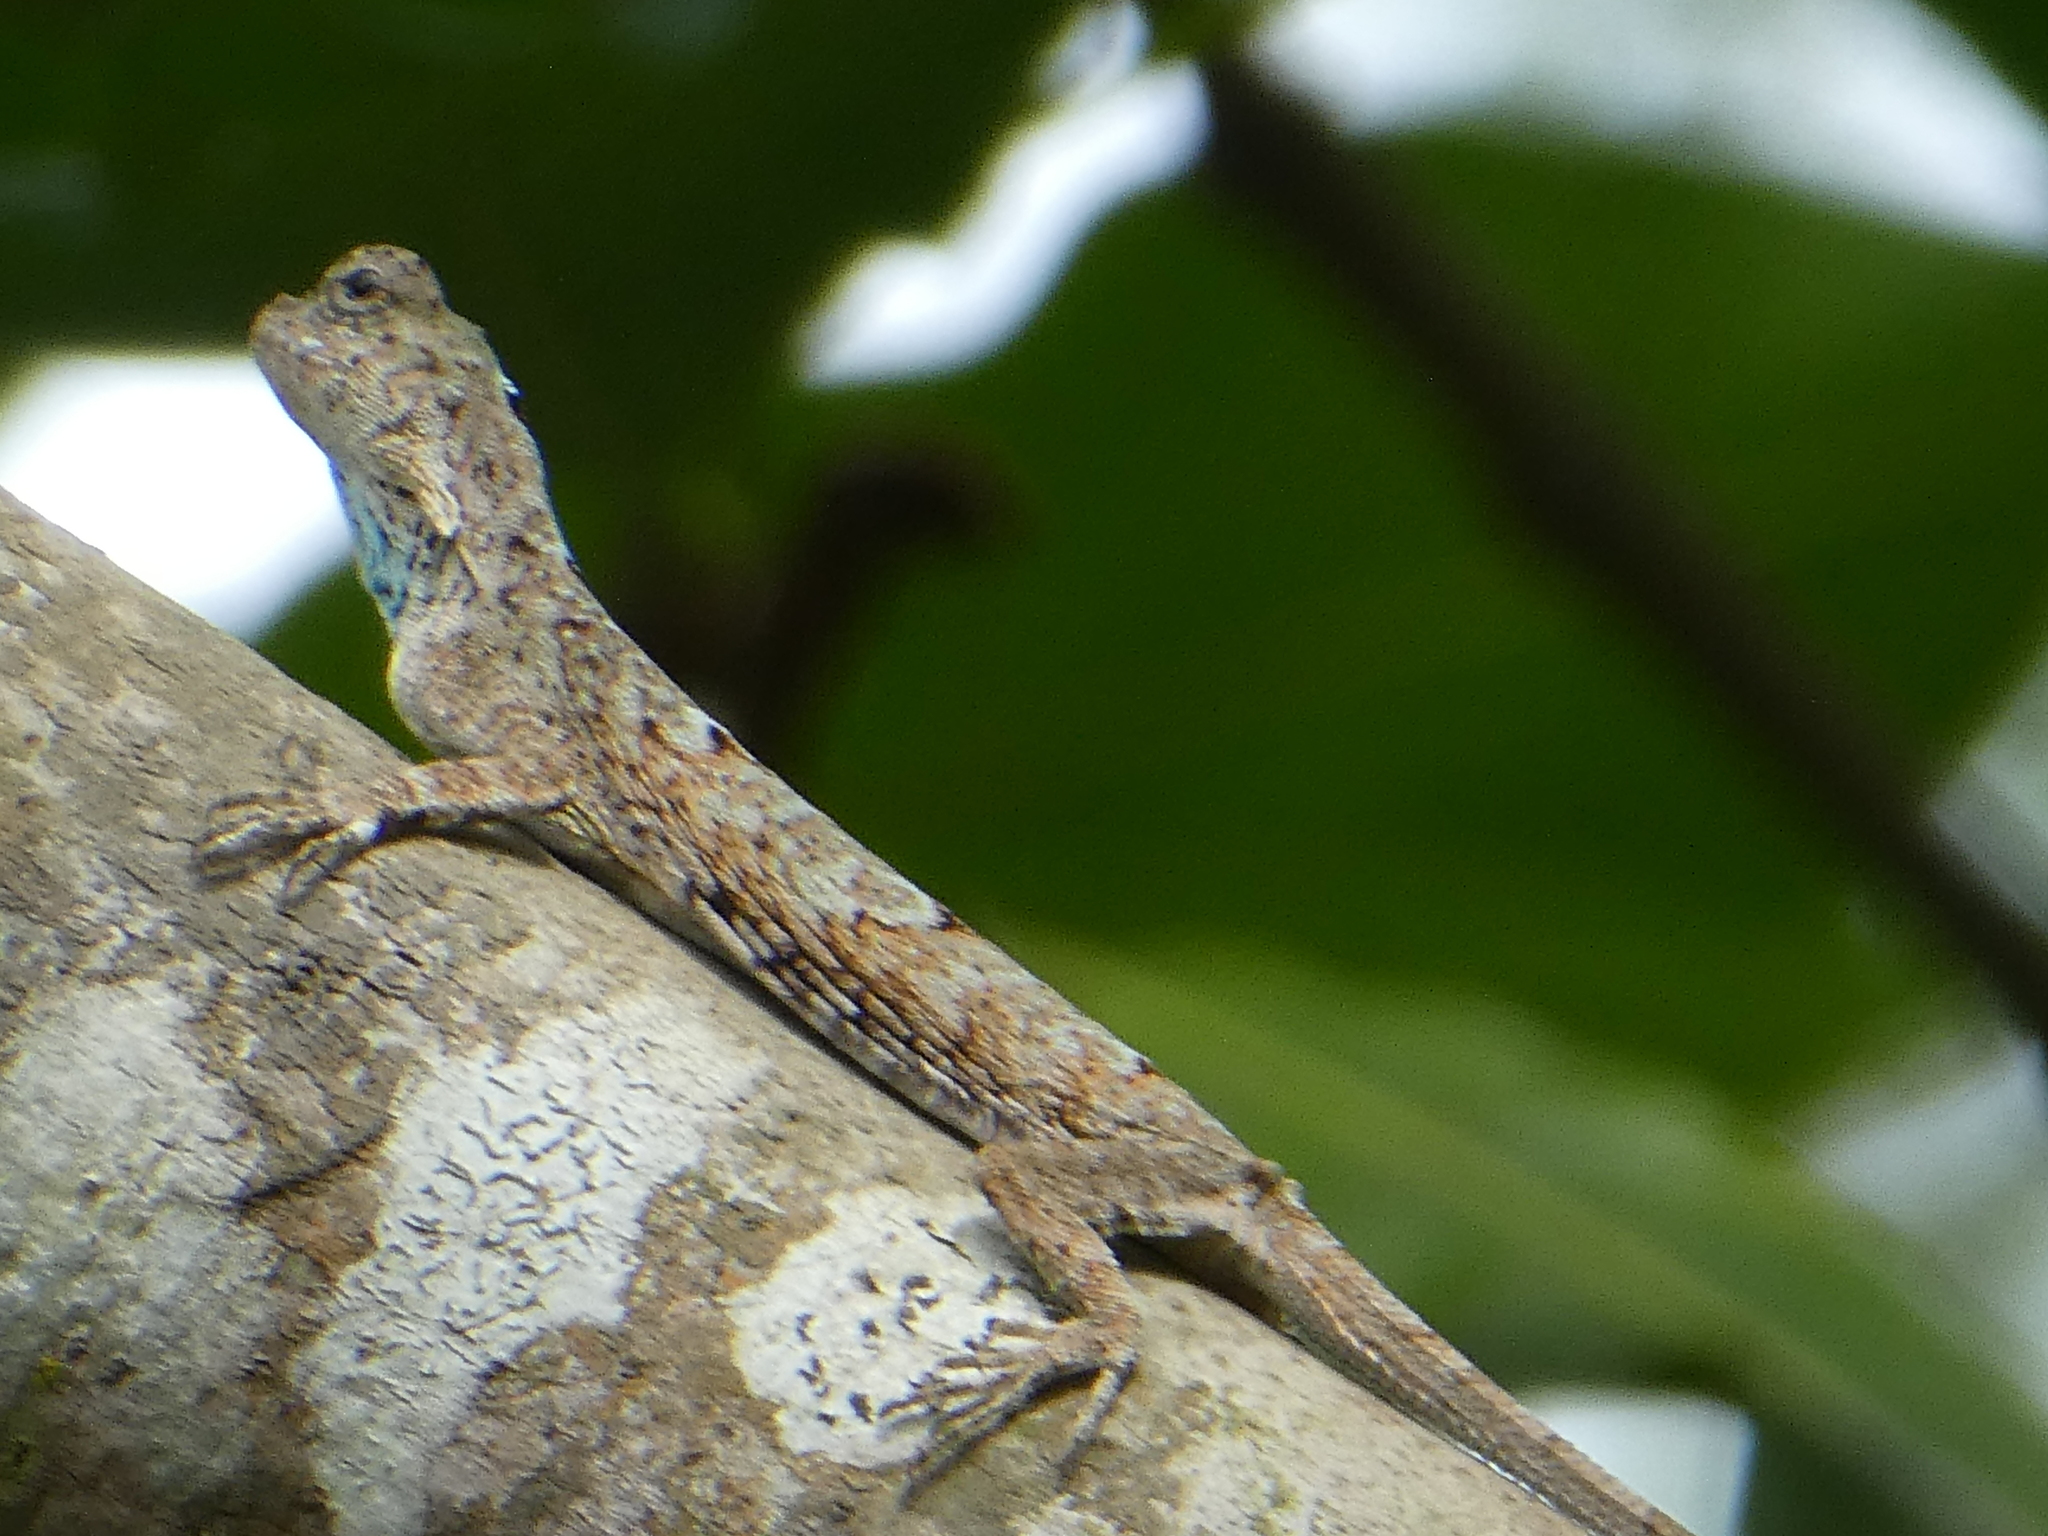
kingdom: Animalia
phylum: Chordata
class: Squamata
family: Agamidae
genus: Draco
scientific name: Draco sumatranus
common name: Common gliding lizard
